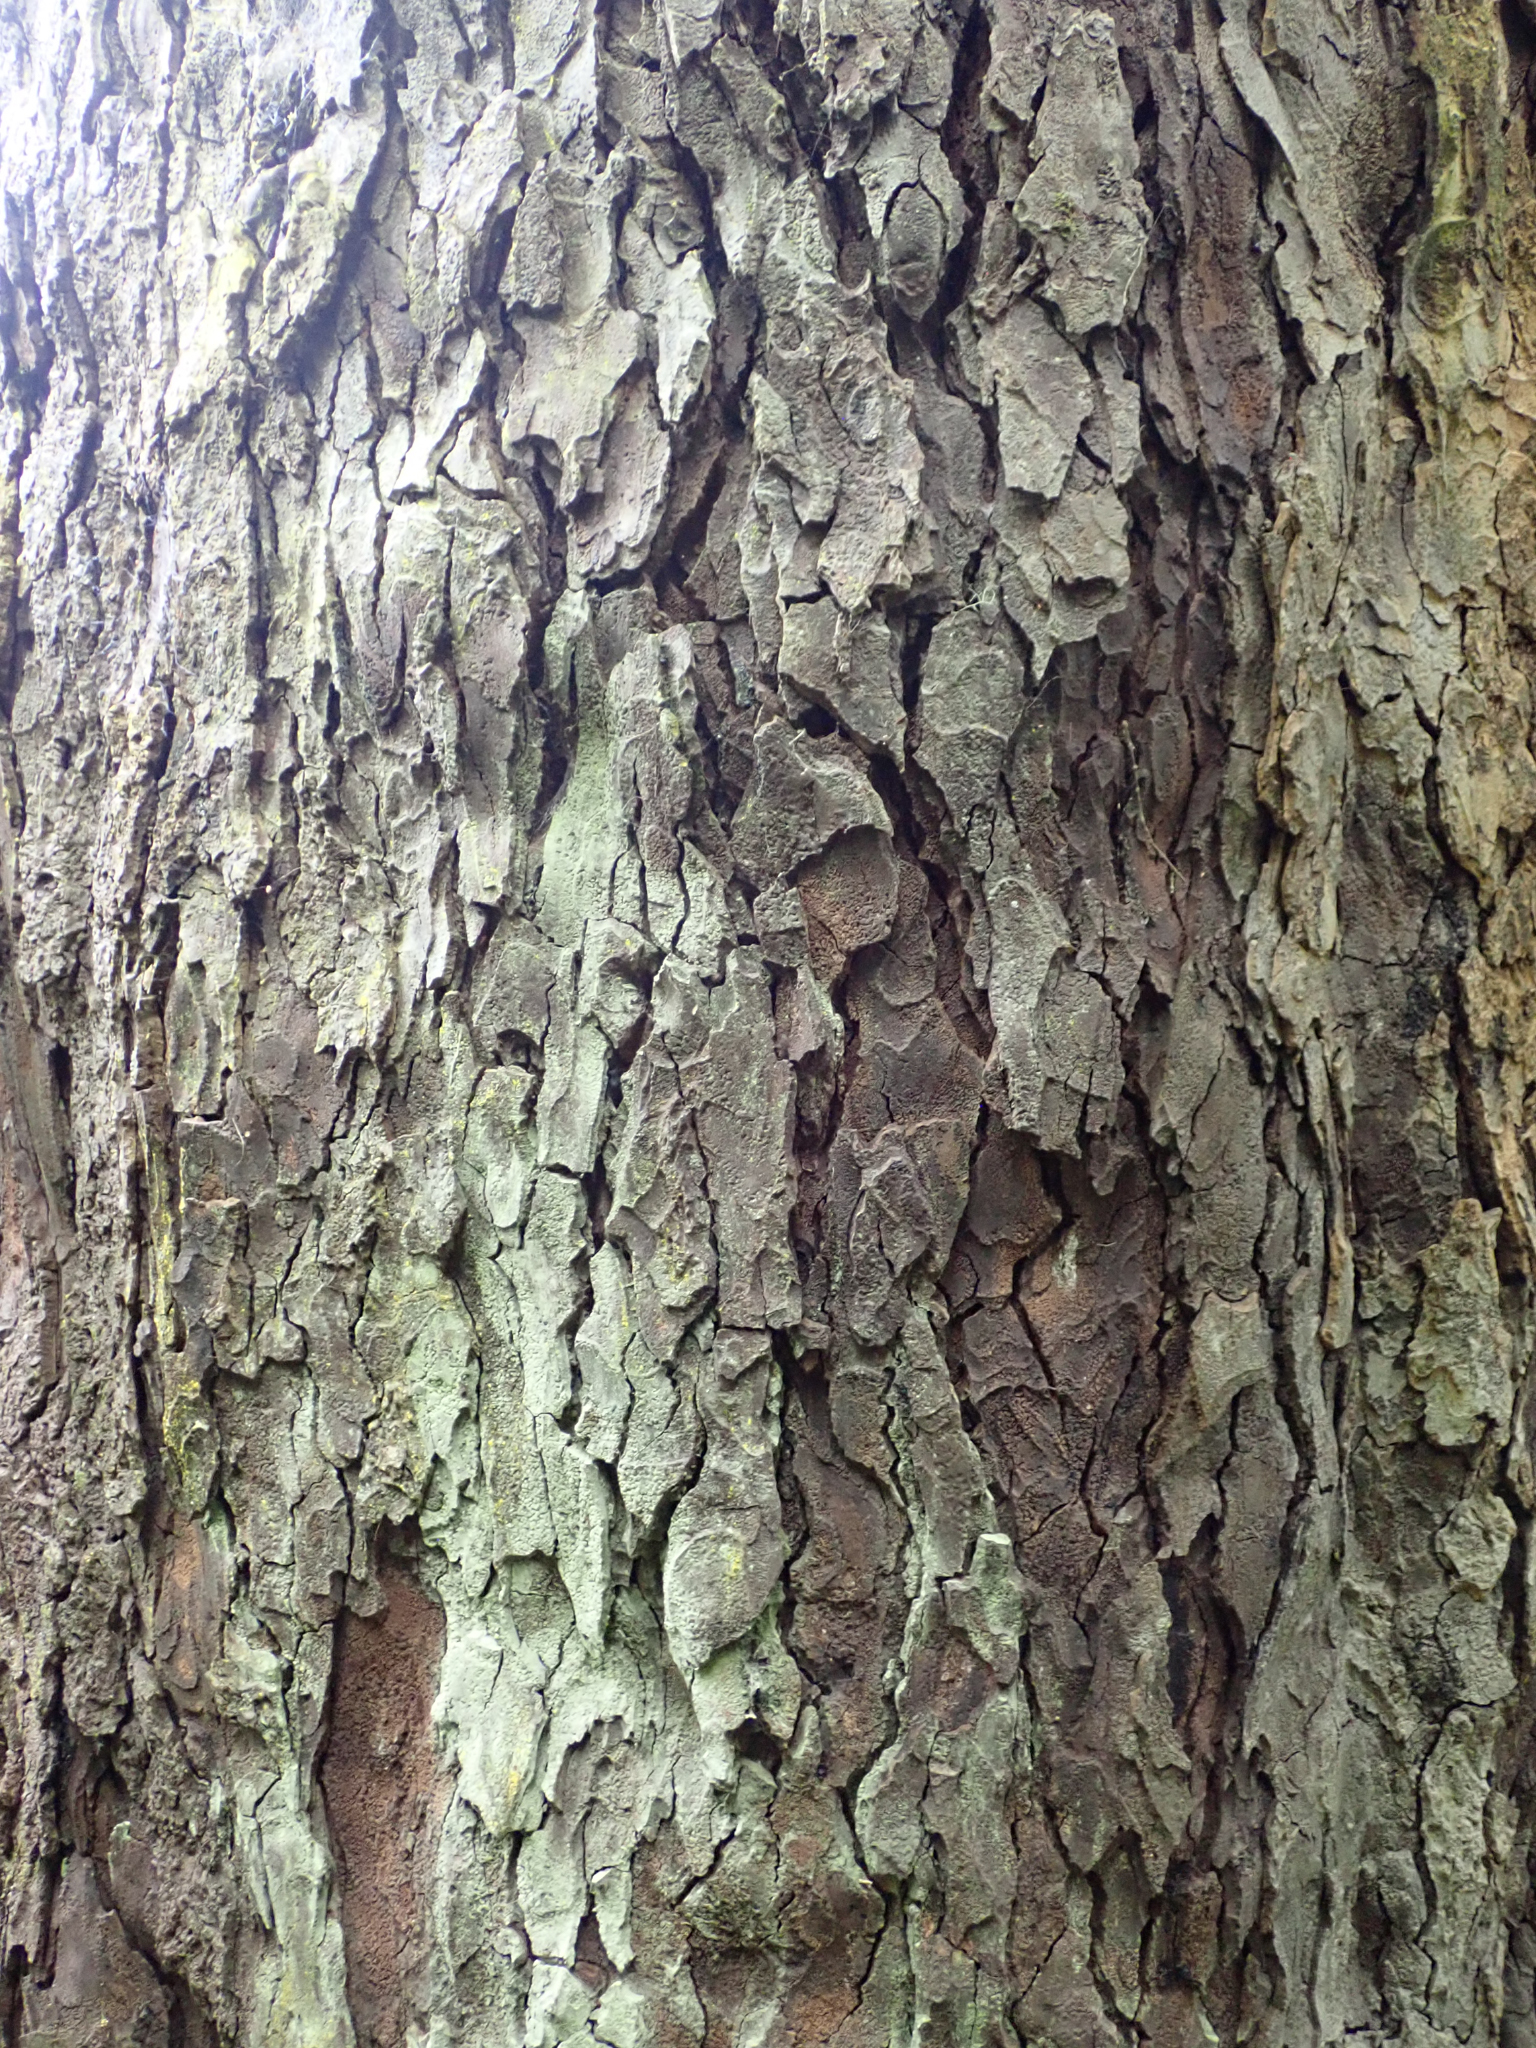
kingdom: Plantae
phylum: Tracheophyta
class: Pinopsida
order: Pinales
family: Podocarpaceae
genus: Dacrydium
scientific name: Dacrydium cupressinum
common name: Red pine
